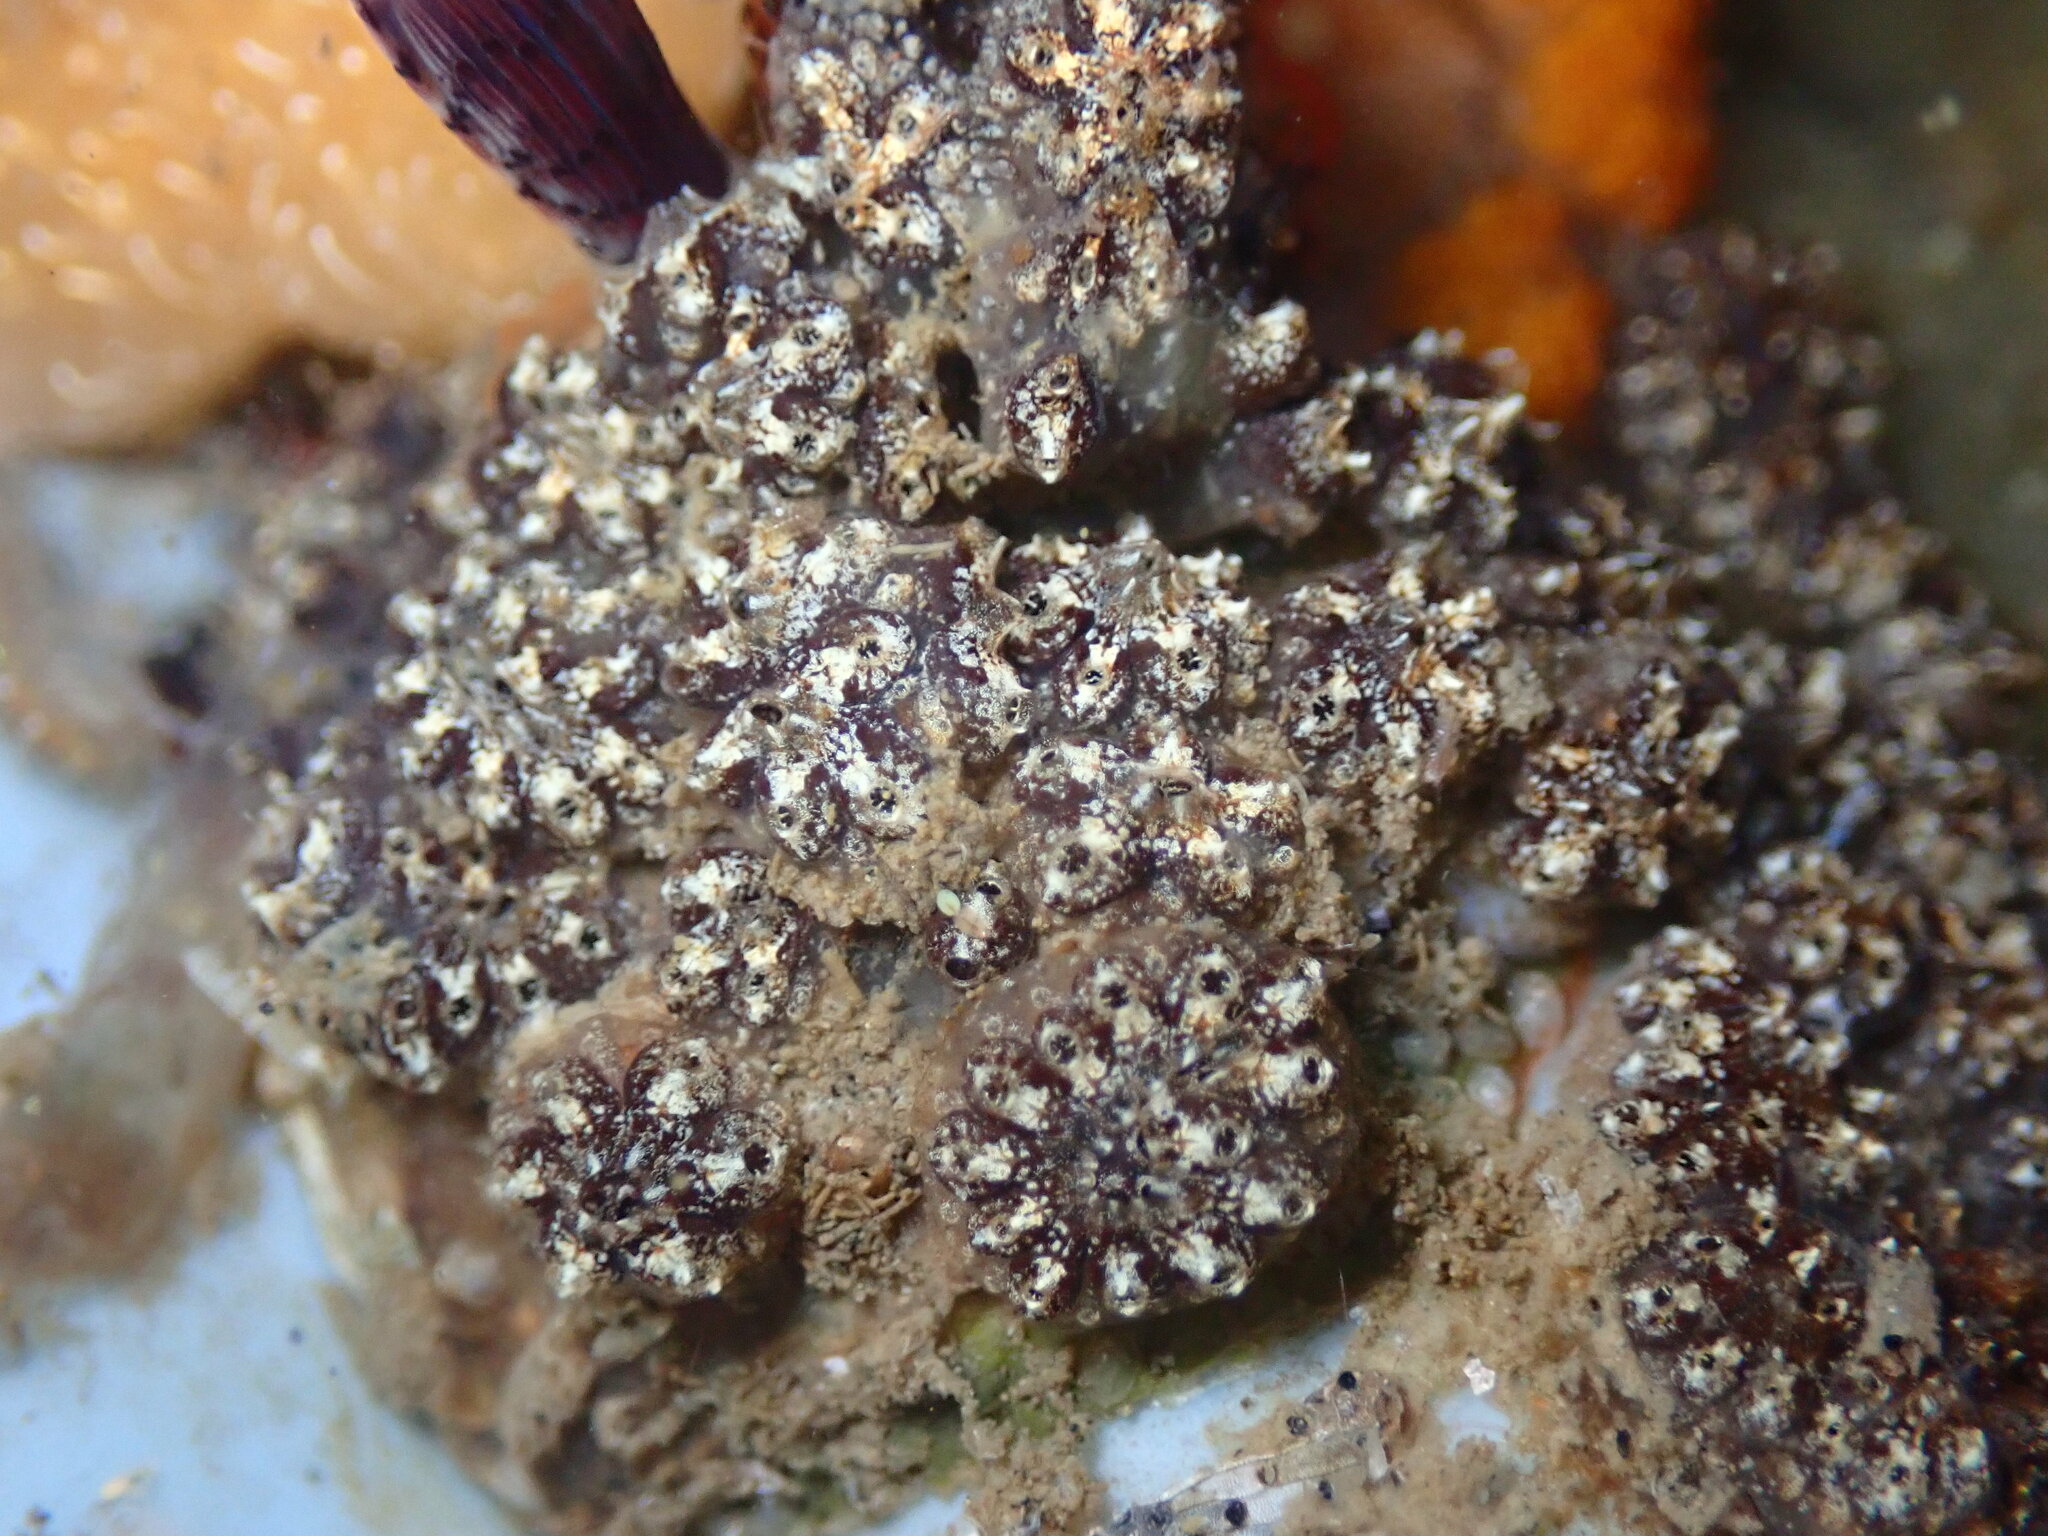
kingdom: Animalia
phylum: Chordata
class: Ascidiacea
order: Stolidobranchia
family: Styelidae
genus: Botryllus
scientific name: Botryllus schlosseri
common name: Golden star tunicate
